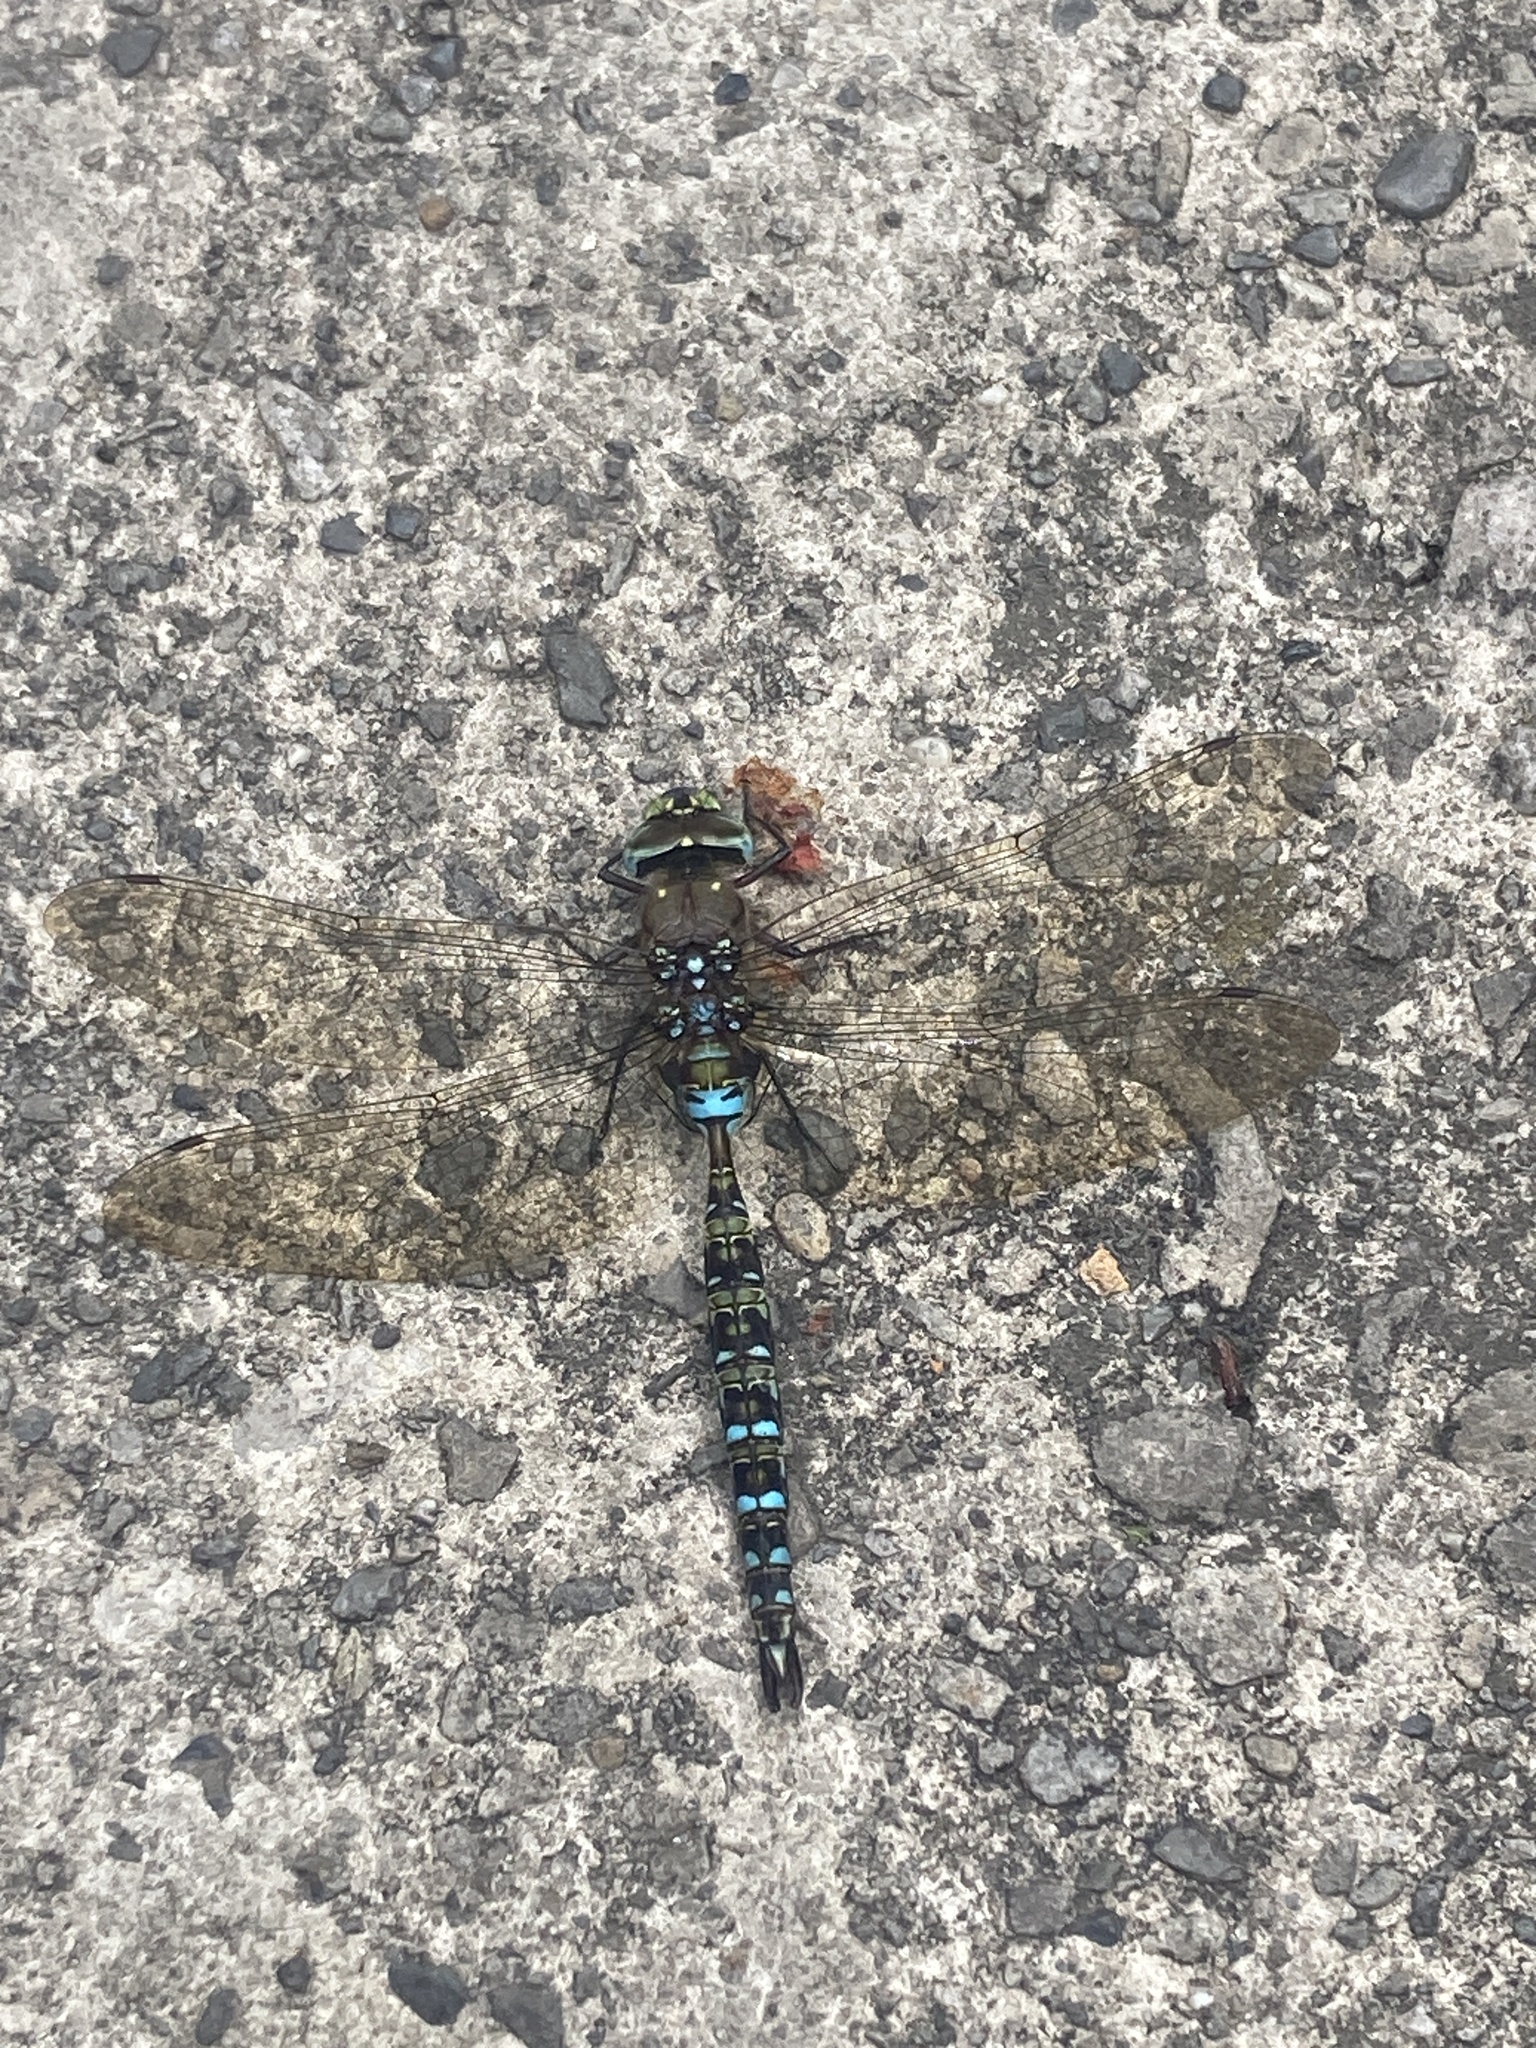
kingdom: Animalia
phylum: Arthropoda
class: Insecta
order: Odonata
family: Aeshnidae
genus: Rhionaeschna
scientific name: Rhionaeschna marchali
